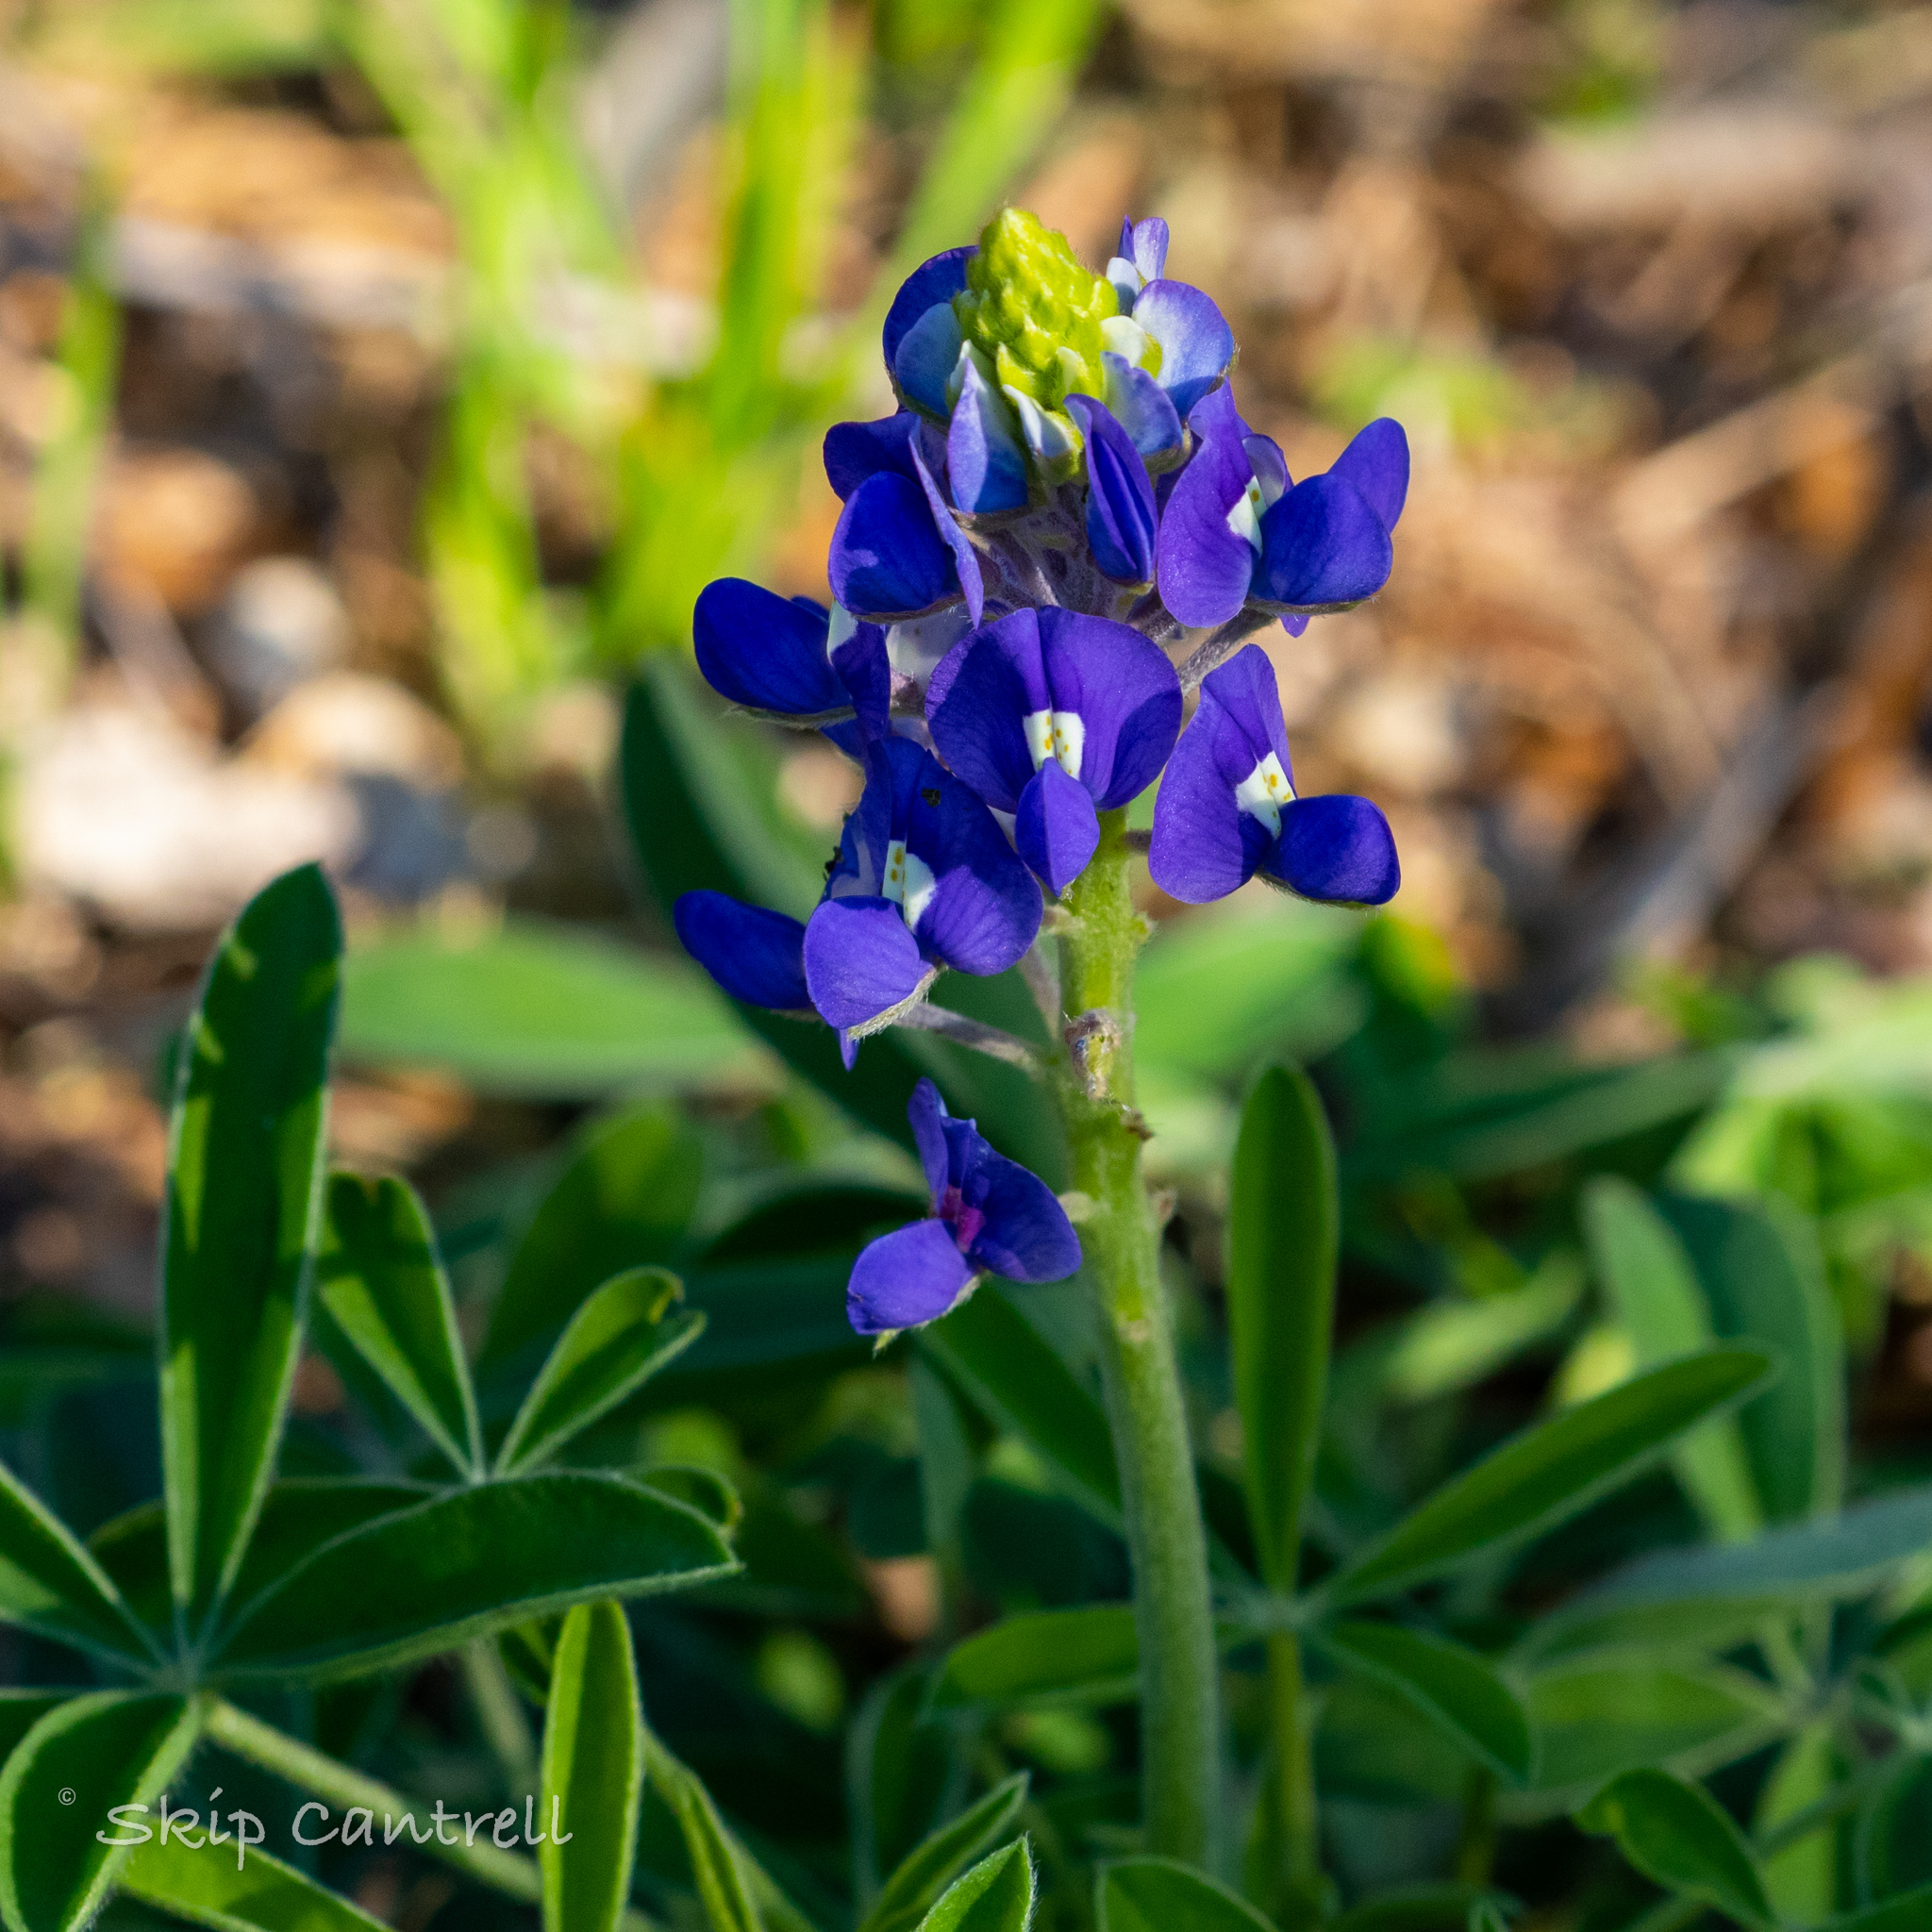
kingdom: Plantae
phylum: Tracheophyta
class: Magnoliopsida
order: Fabales
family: Fabaceae
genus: Lupinus
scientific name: Lupinus texensis
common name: Texas bluebonnet
